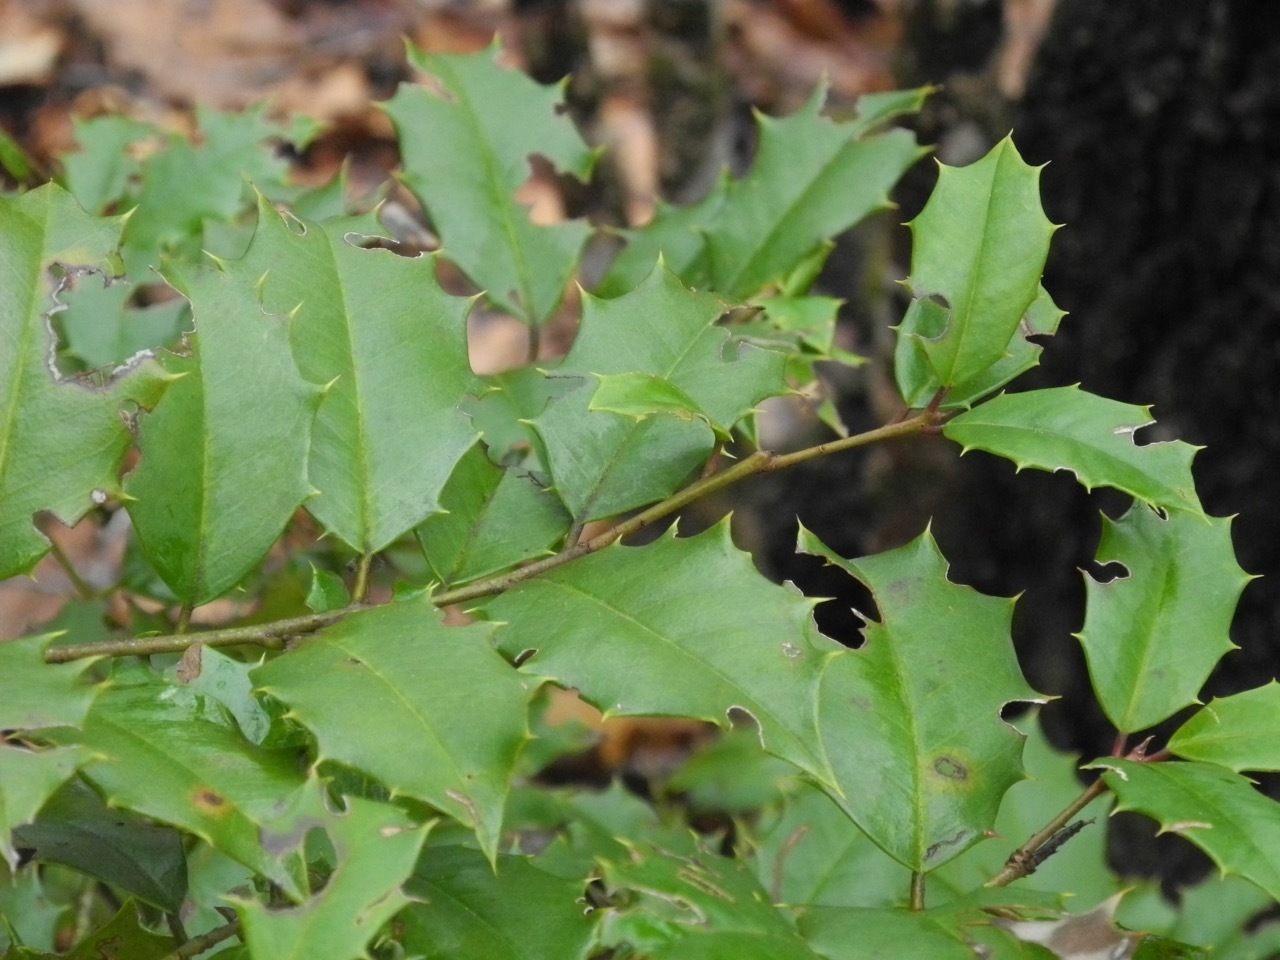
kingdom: Plantae
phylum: Tracheophyta
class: Magnoliopsida
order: Aquifoliales
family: Aquifoliaceae
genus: Ilex
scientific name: Ilex opaca
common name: American holly
